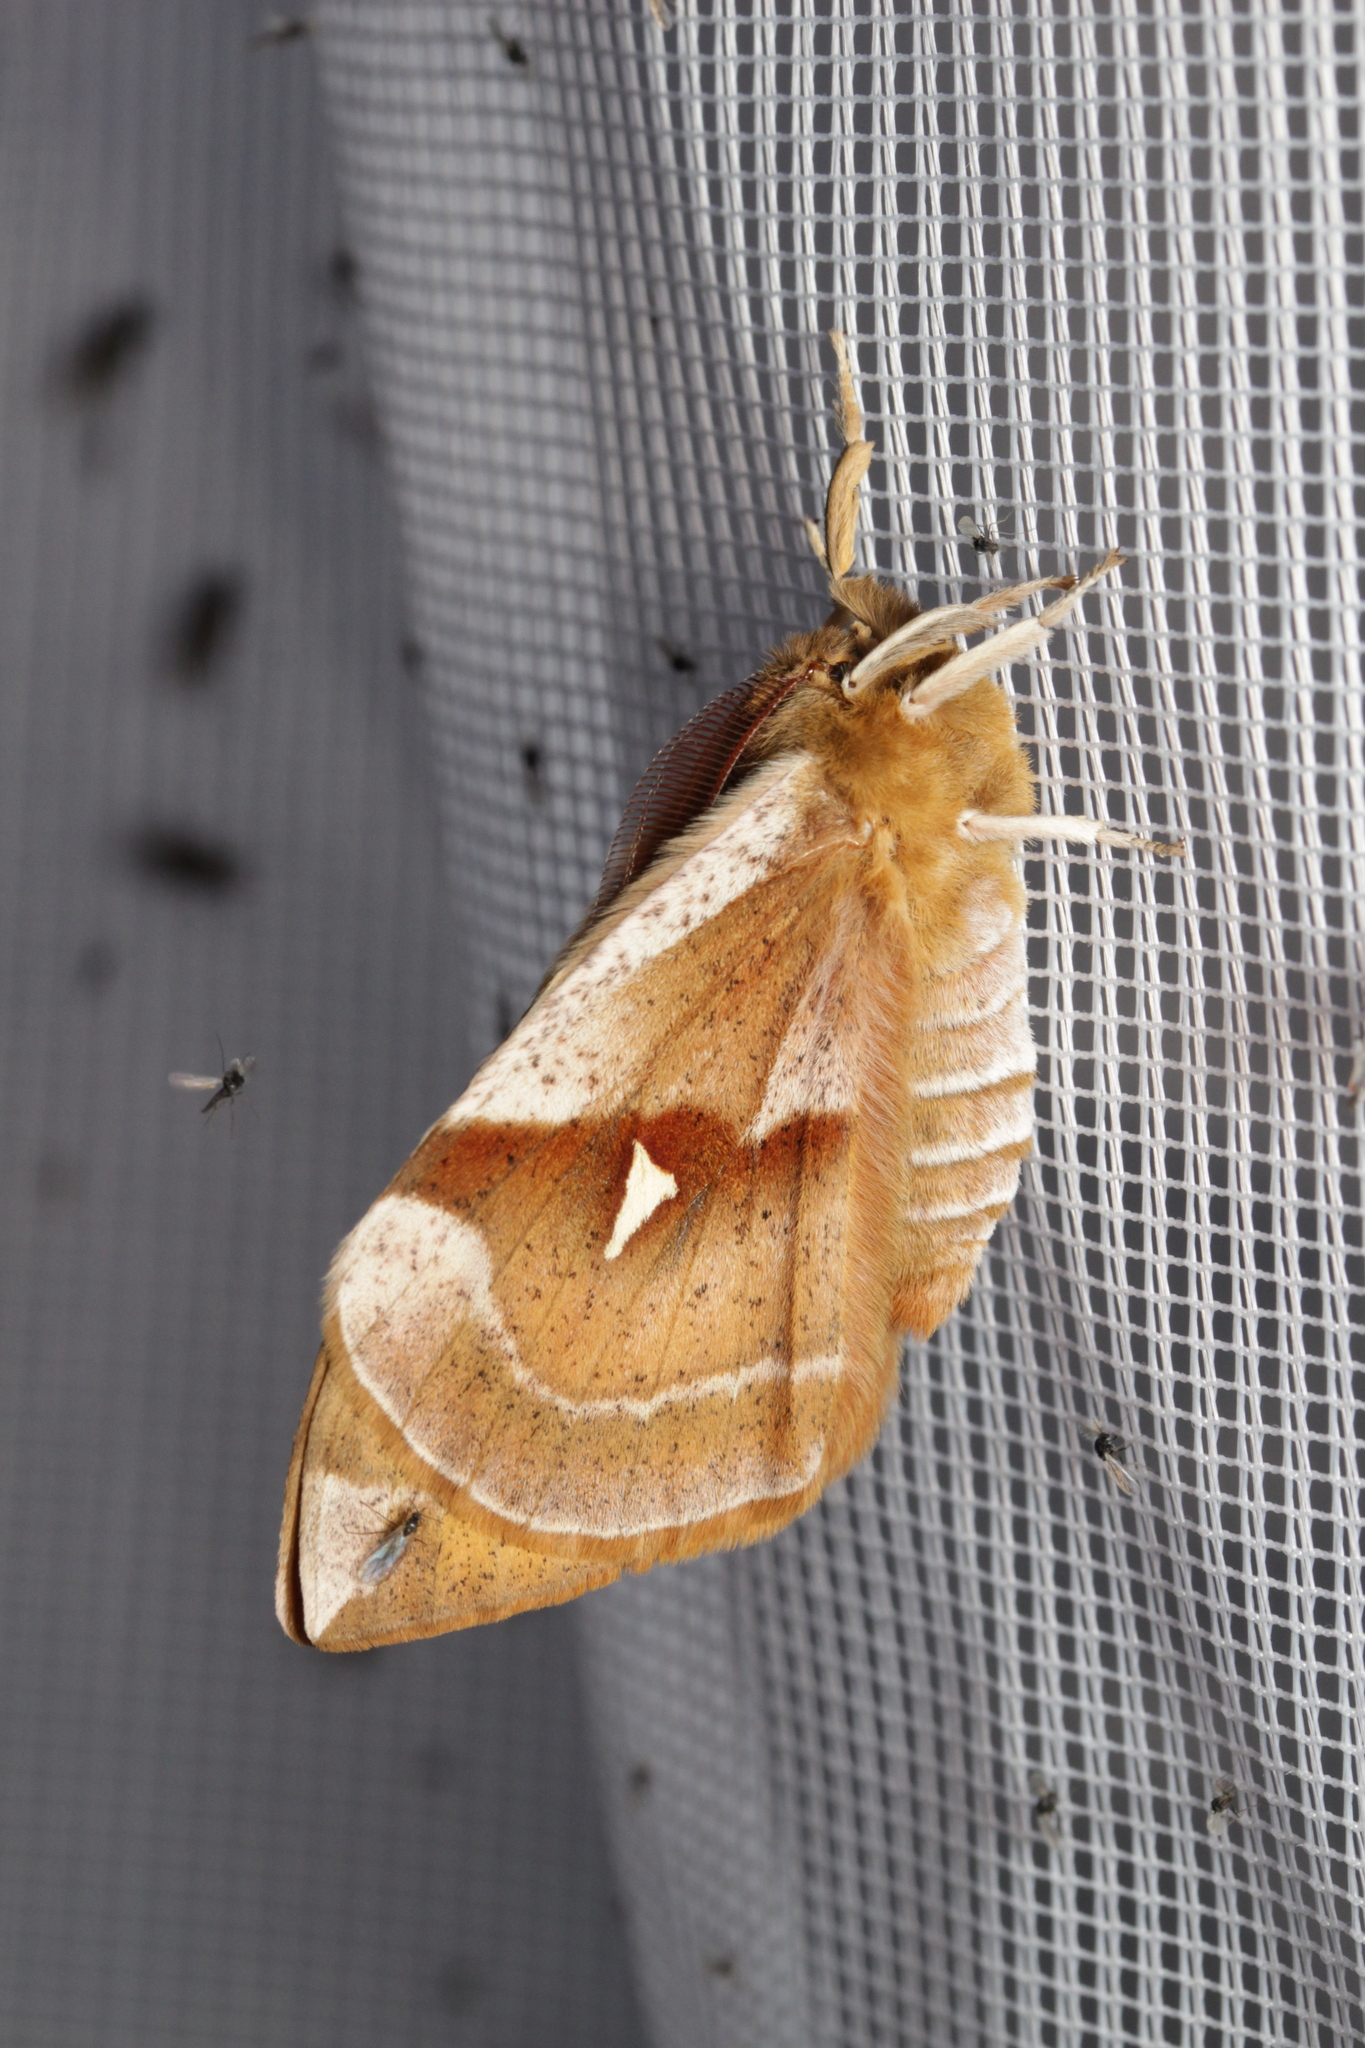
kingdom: Animalia
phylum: Arthropoda
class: Insecta
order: Lepidoptera
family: Saturniidae
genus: Aglia
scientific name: Aglia tau
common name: Tau emperor
